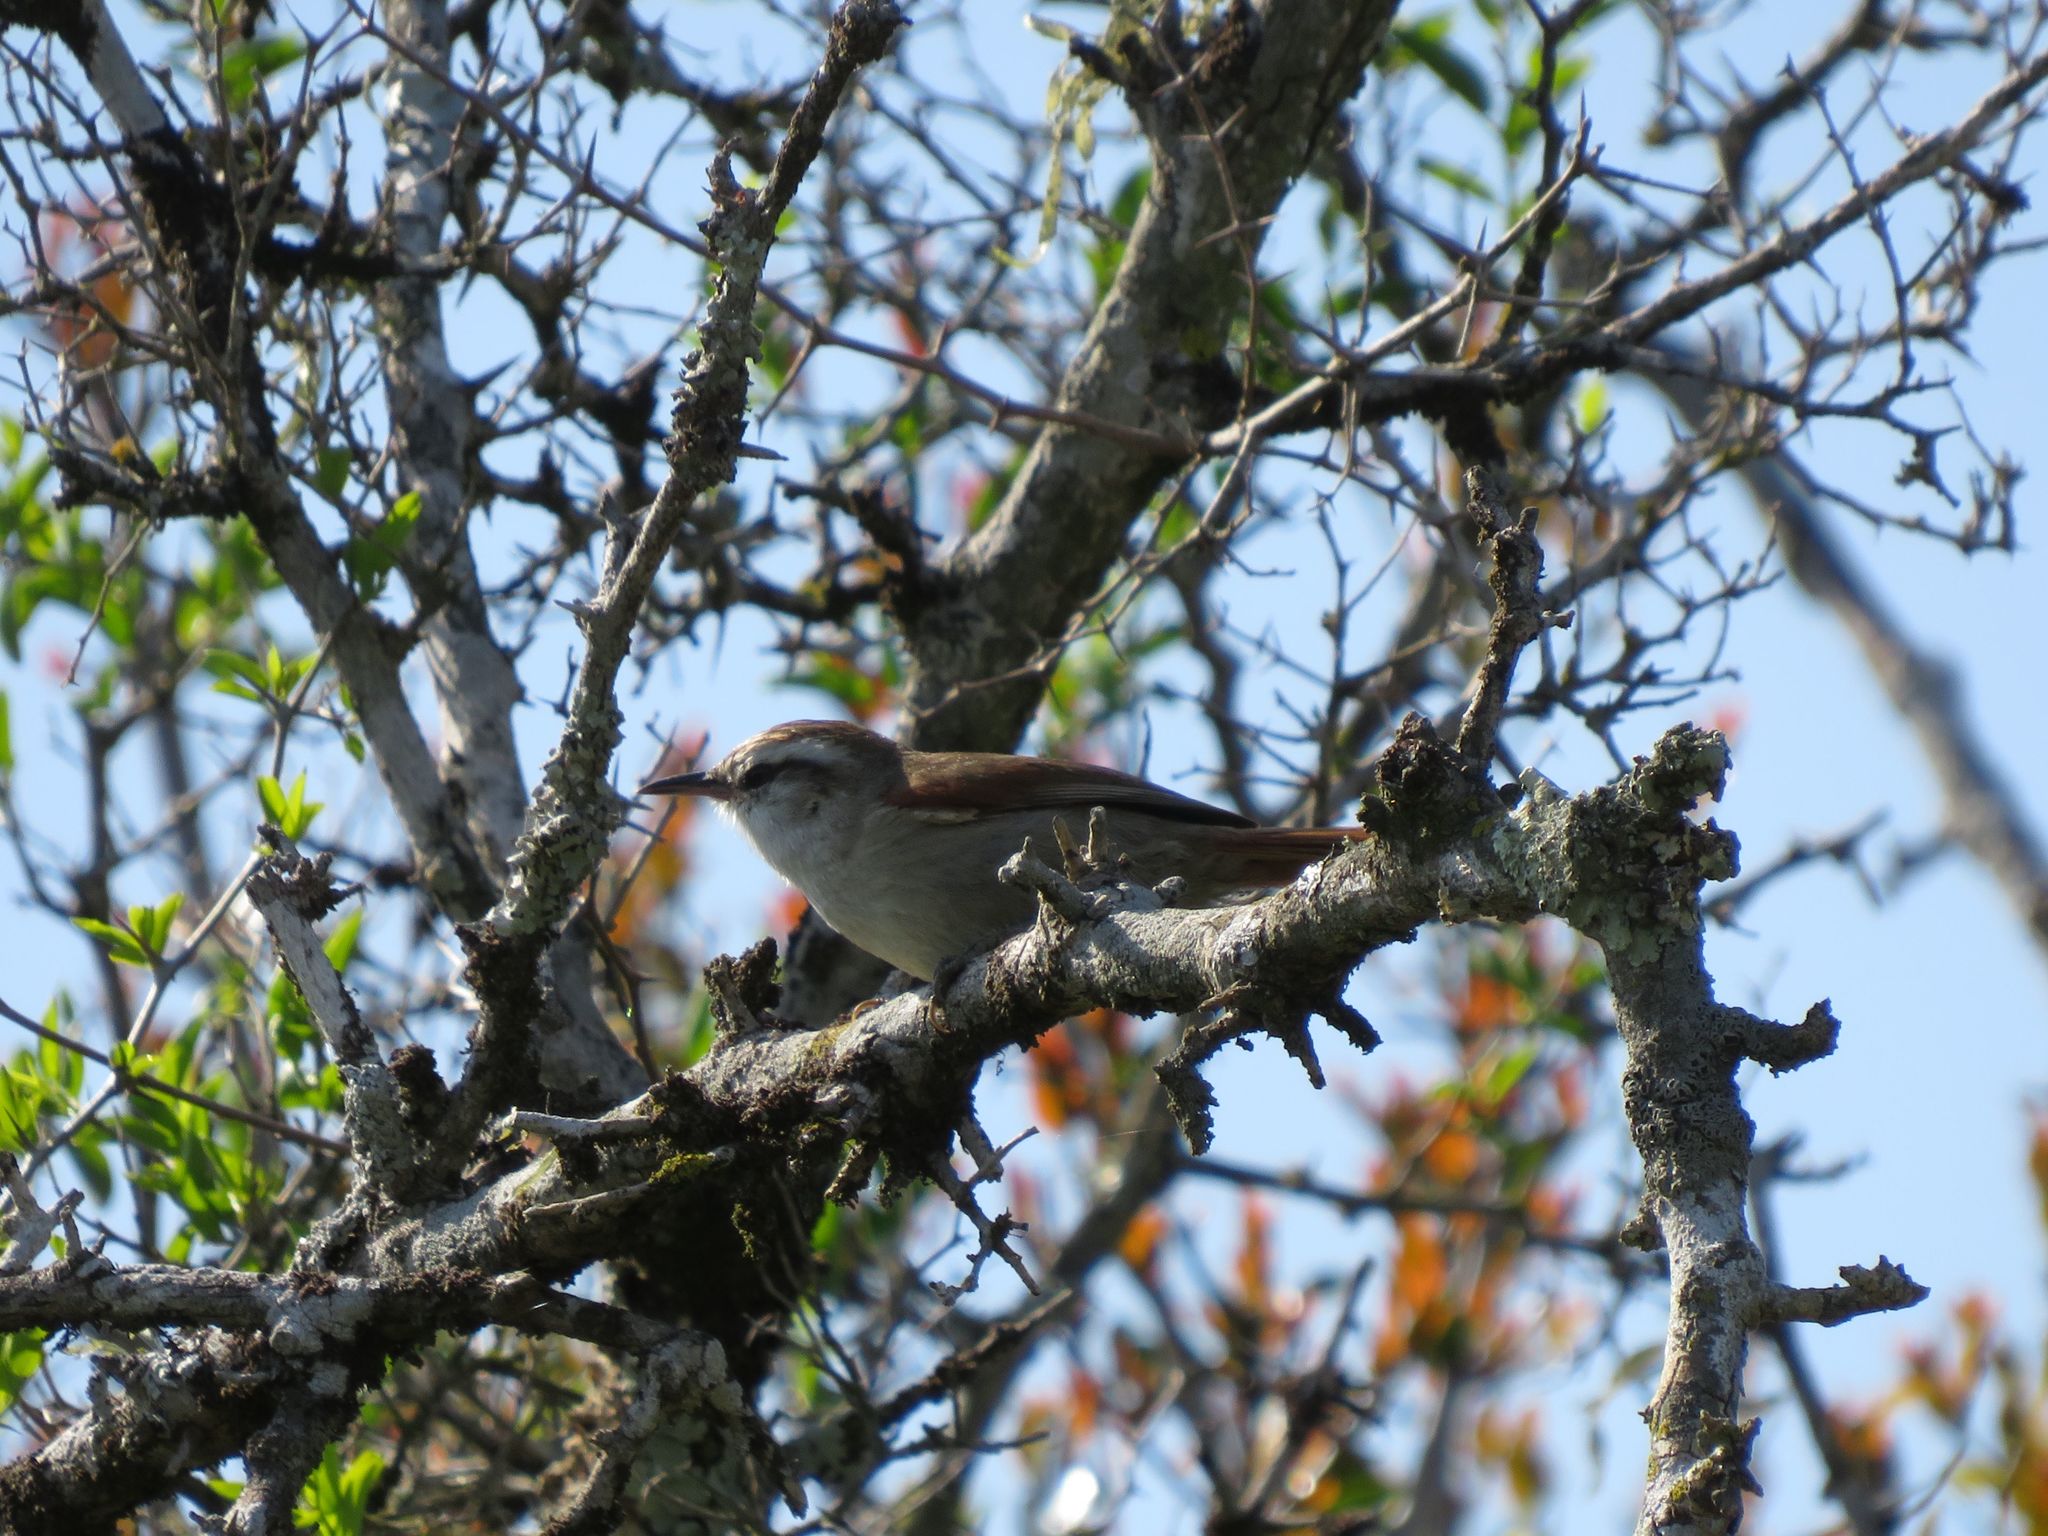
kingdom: Animalia
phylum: Chordata
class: Aves
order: Passeriformes
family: Furnariidae
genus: Cranioleuca
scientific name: Cranioleuca pyrrhophia
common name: Stripe-crowned spinetail
